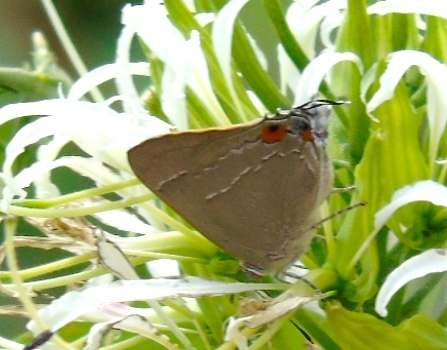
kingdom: Animalia
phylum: Arthropoda
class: Insecta
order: Lepidoptera
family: Lycaenidae
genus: Rekoa
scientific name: Rekoa
